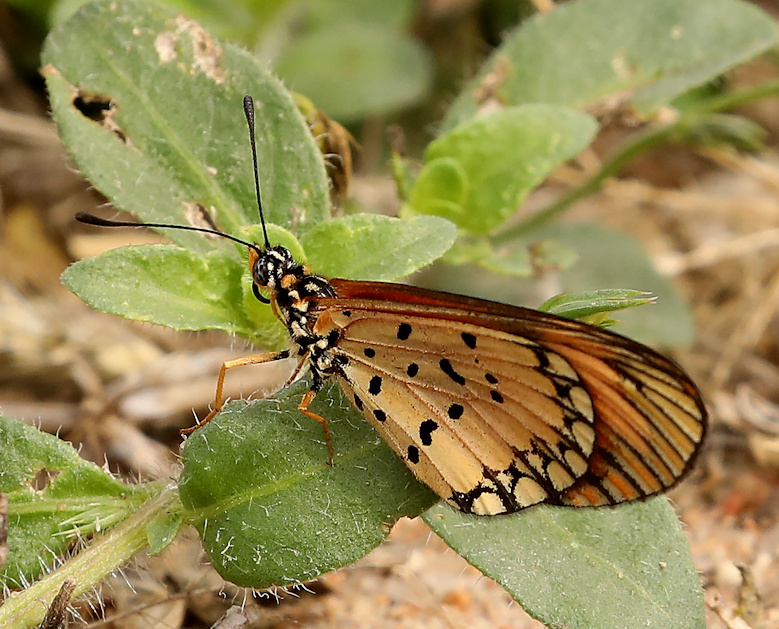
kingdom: Animalia
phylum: Arthropoda
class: Insecta
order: Lepidoptera
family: Nymphalidae
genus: Acraea
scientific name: Acraea Telchinia serena
